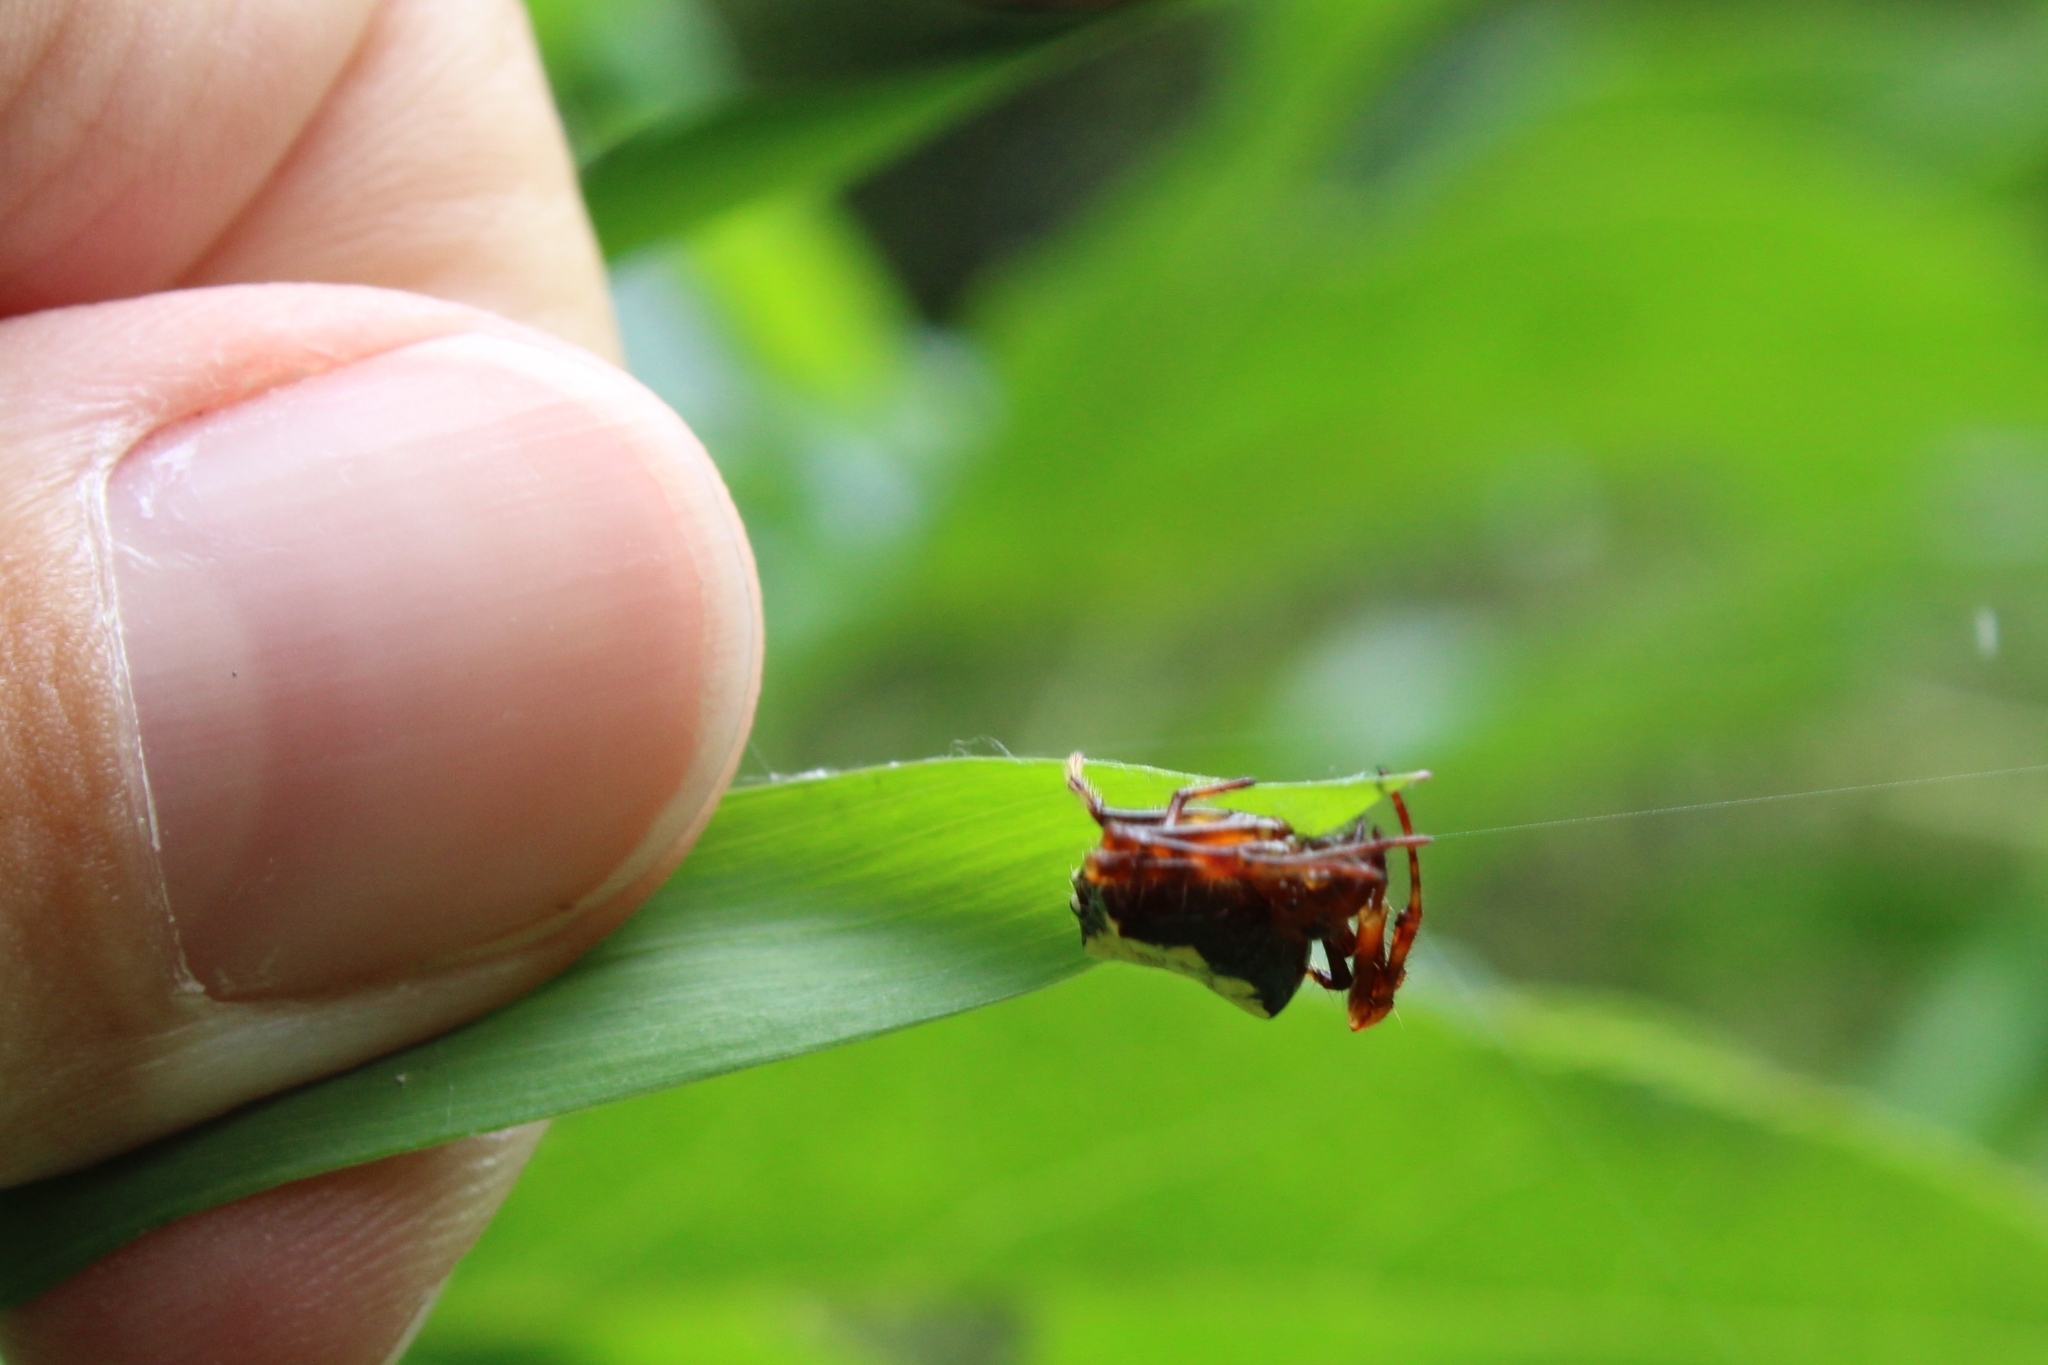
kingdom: Animalia
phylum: Arthropoda
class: Arachnida
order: Araneae
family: Araneidae
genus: Verrucosa
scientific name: Verrucosa arenata
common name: Orb weavers
